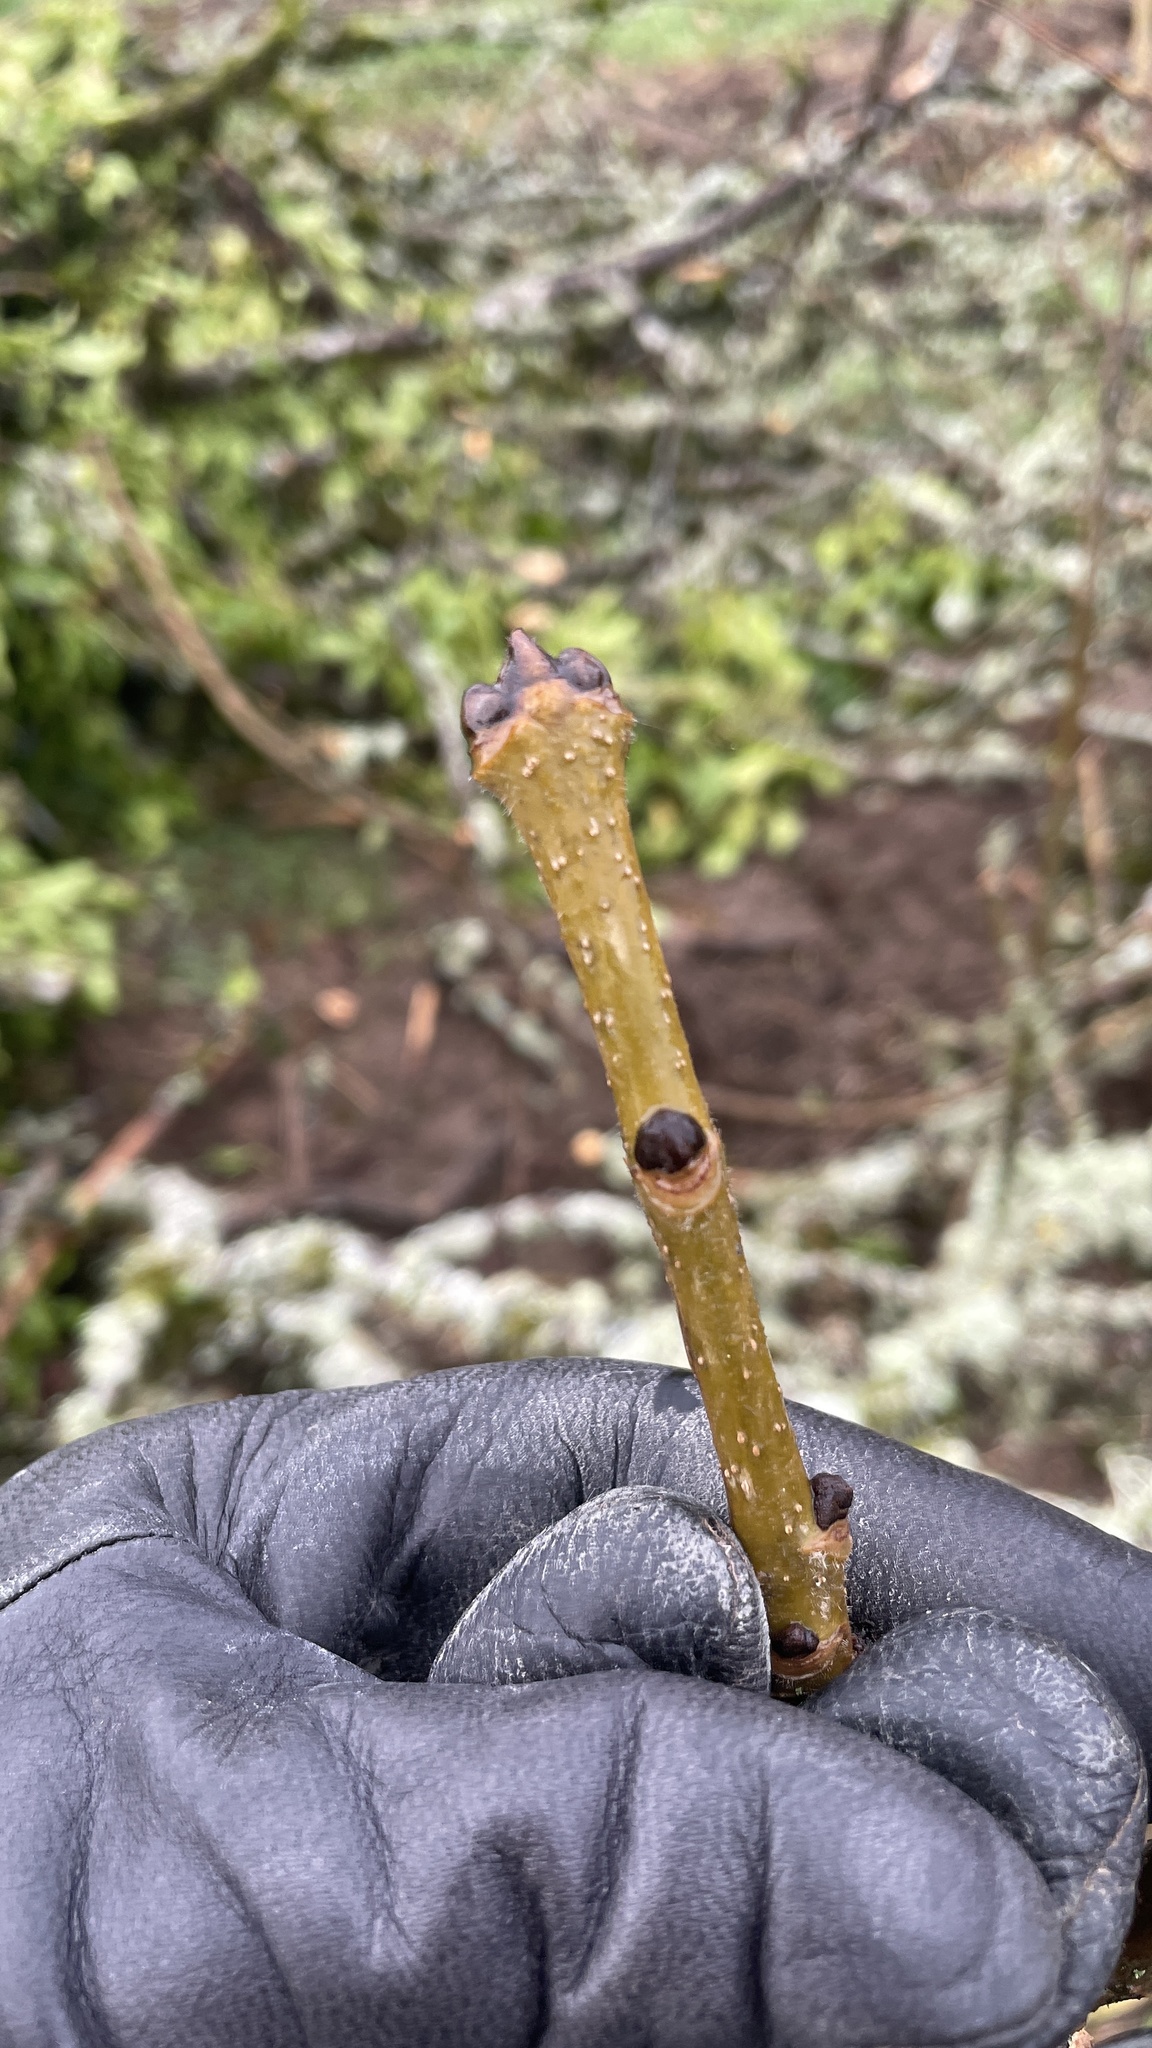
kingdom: Plantae
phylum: Tracheophyta
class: Magnoliopsida
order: Lamiales
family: Oleaceae
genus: Fraxinus
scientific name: Fraxinus latifolia
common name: Oregon ash
